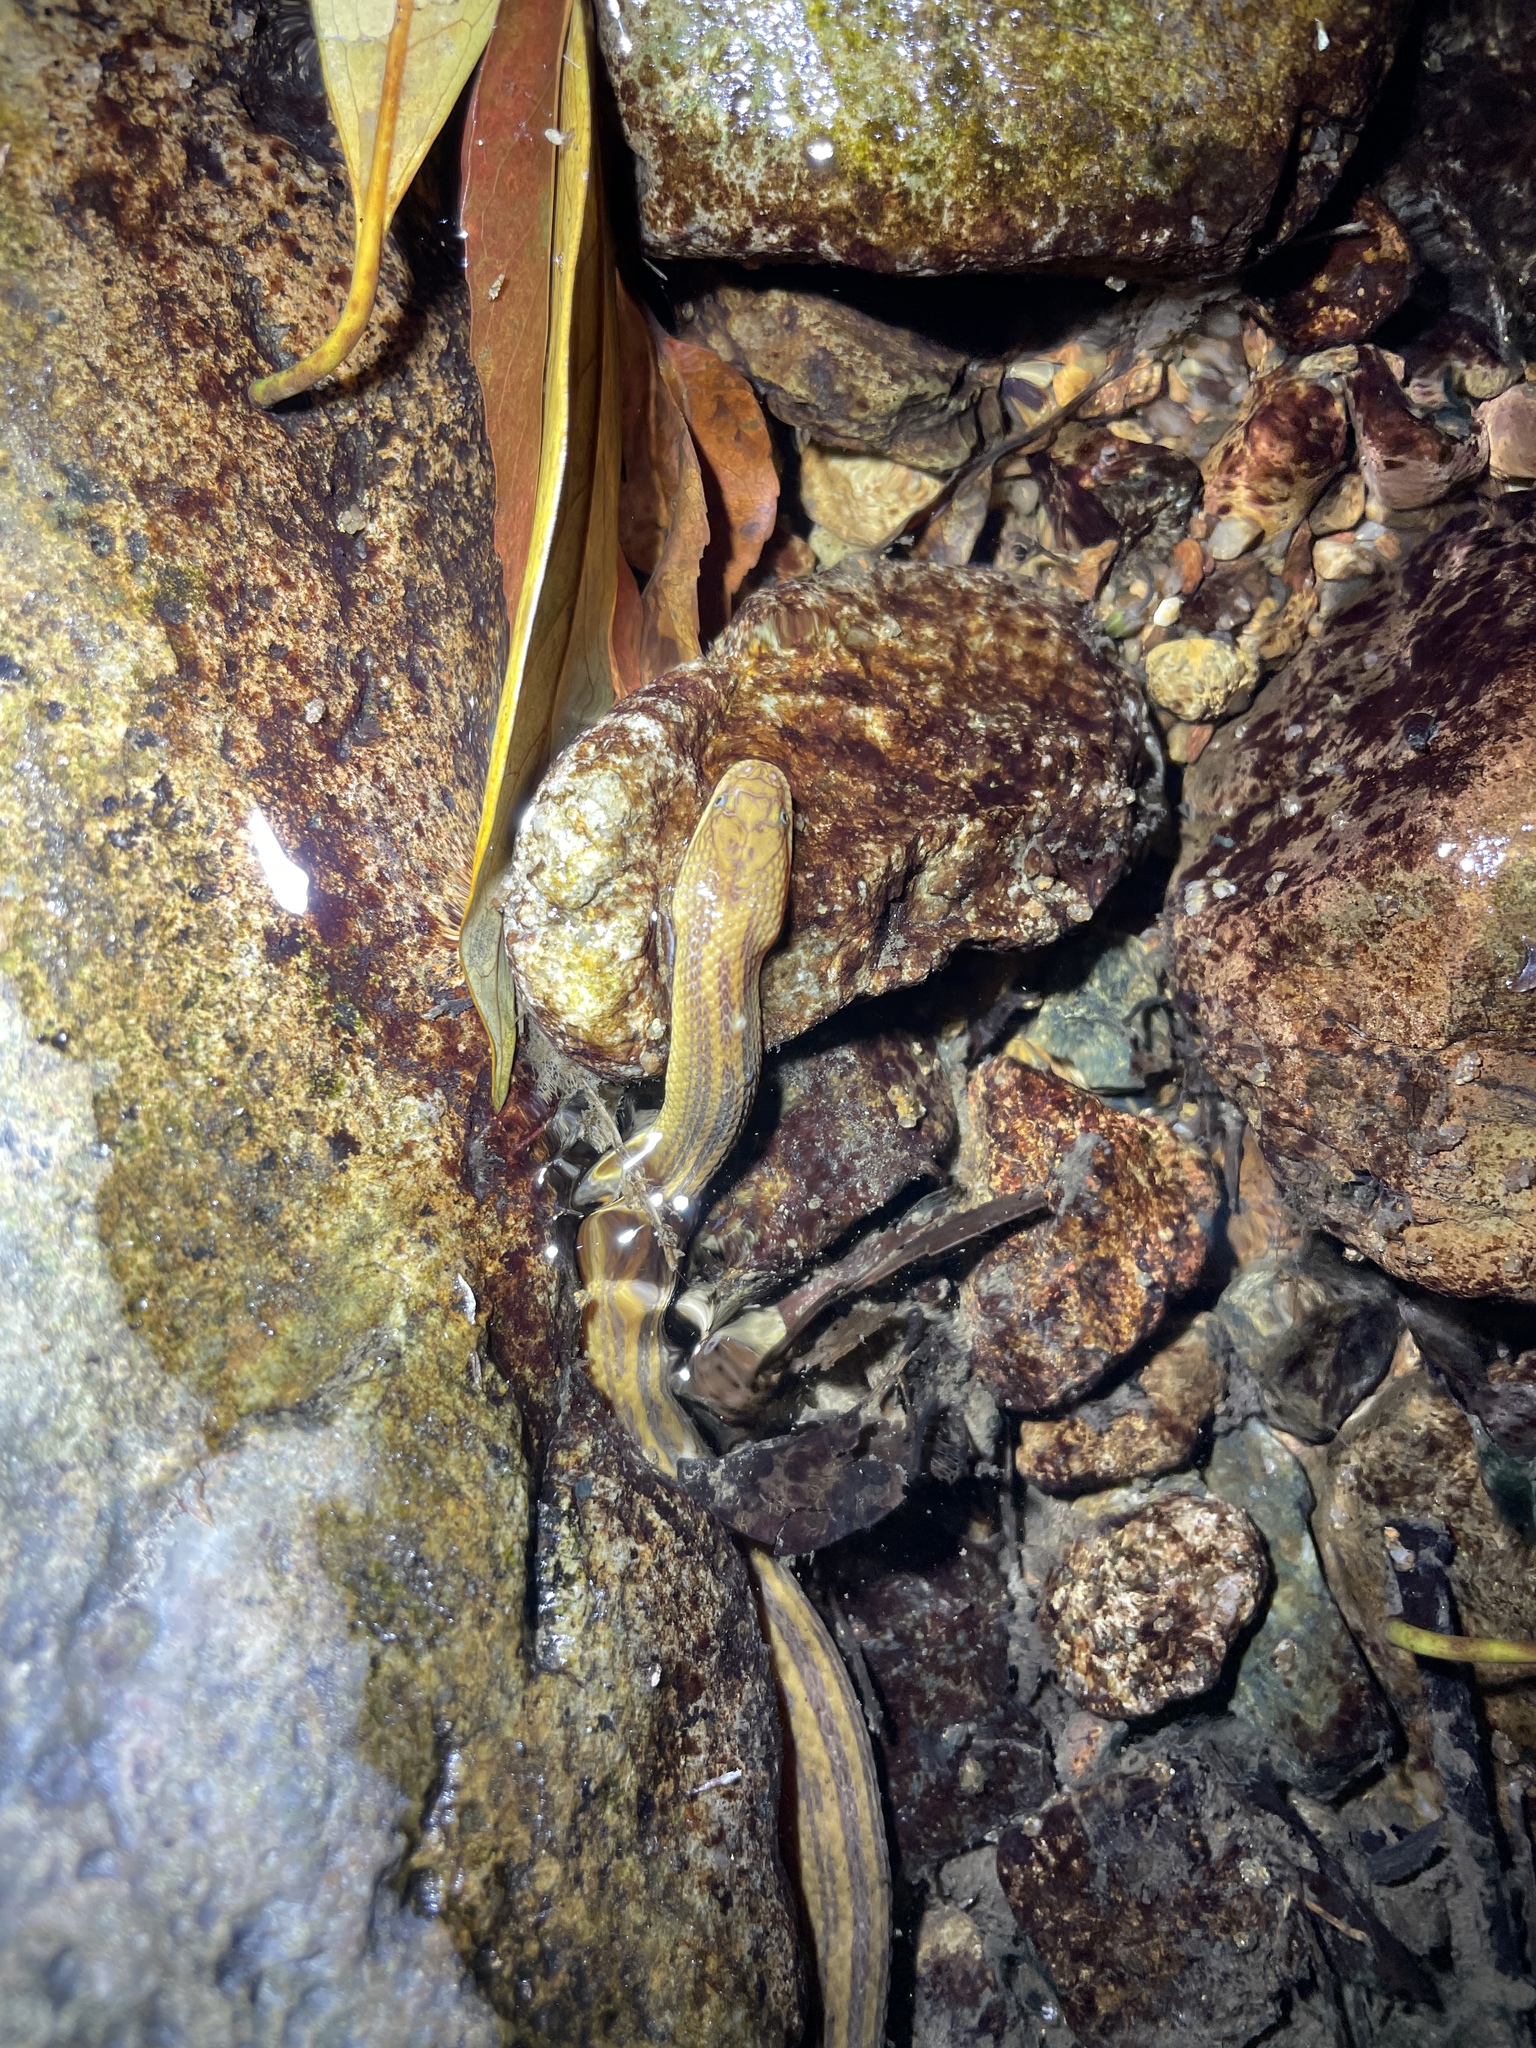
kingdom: Animalia
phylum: Chordata
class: Squamata
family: Colubridae
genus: Opisthotropis
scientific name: Opisthotropis kuatunensis
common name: Chinese mountain keelback
